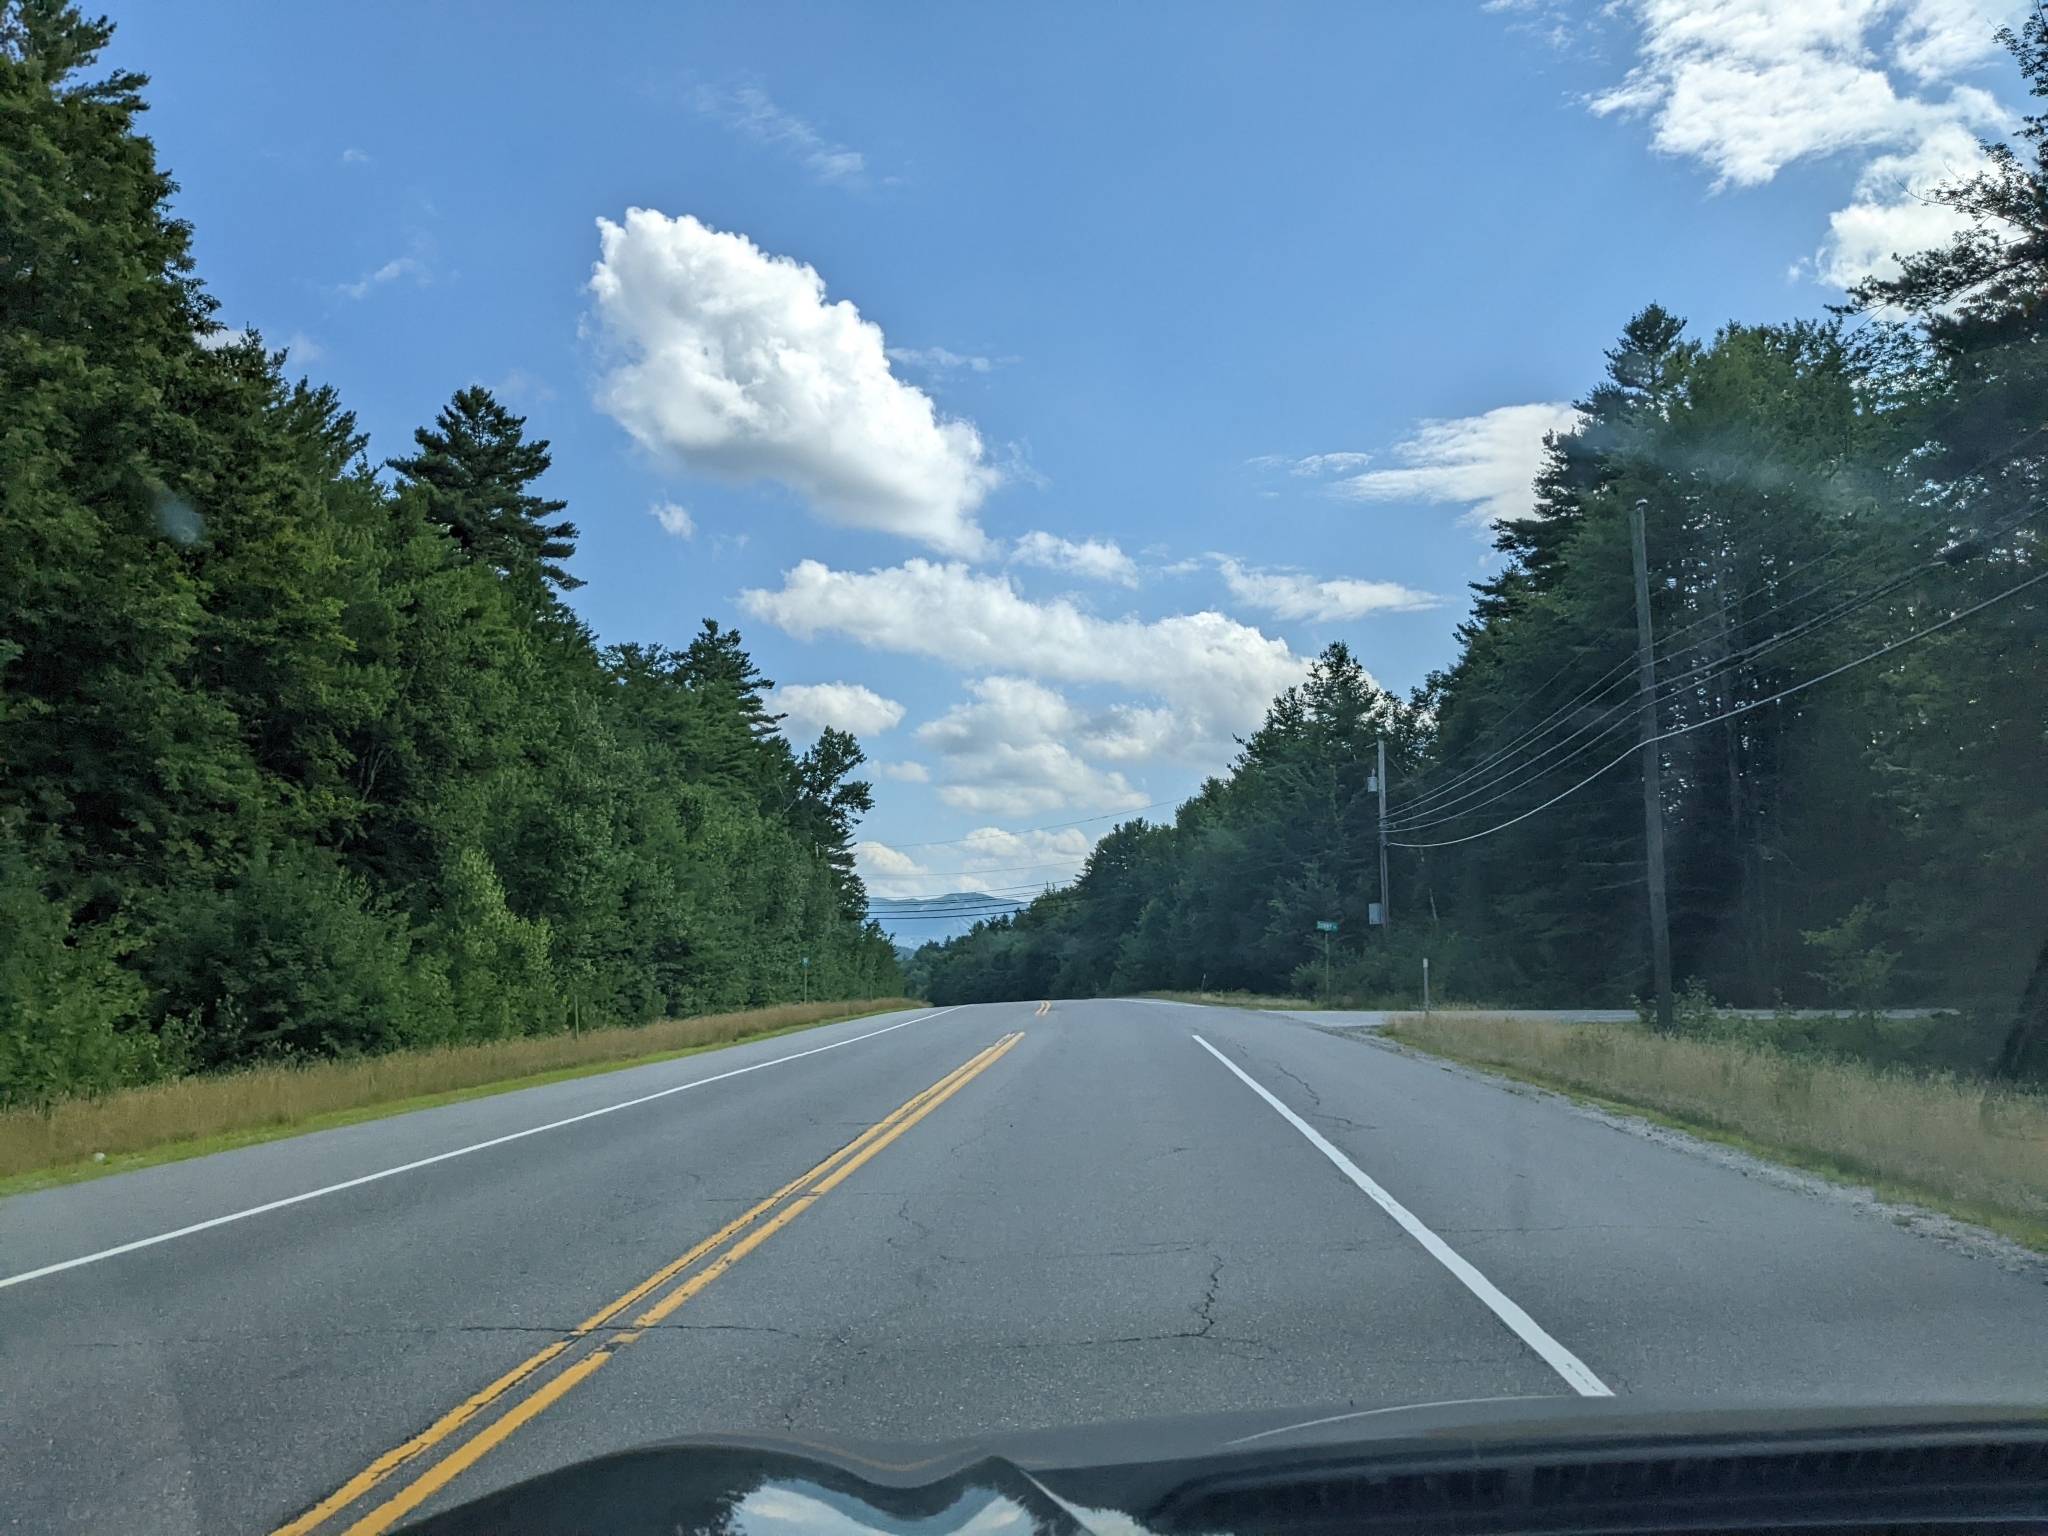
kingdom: Plantae
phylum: Tracheophyta
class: Pinopsida
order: Pinales
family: Pinaceae
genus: Pinus
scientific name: Pinus strobus
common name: Weymouth pine
